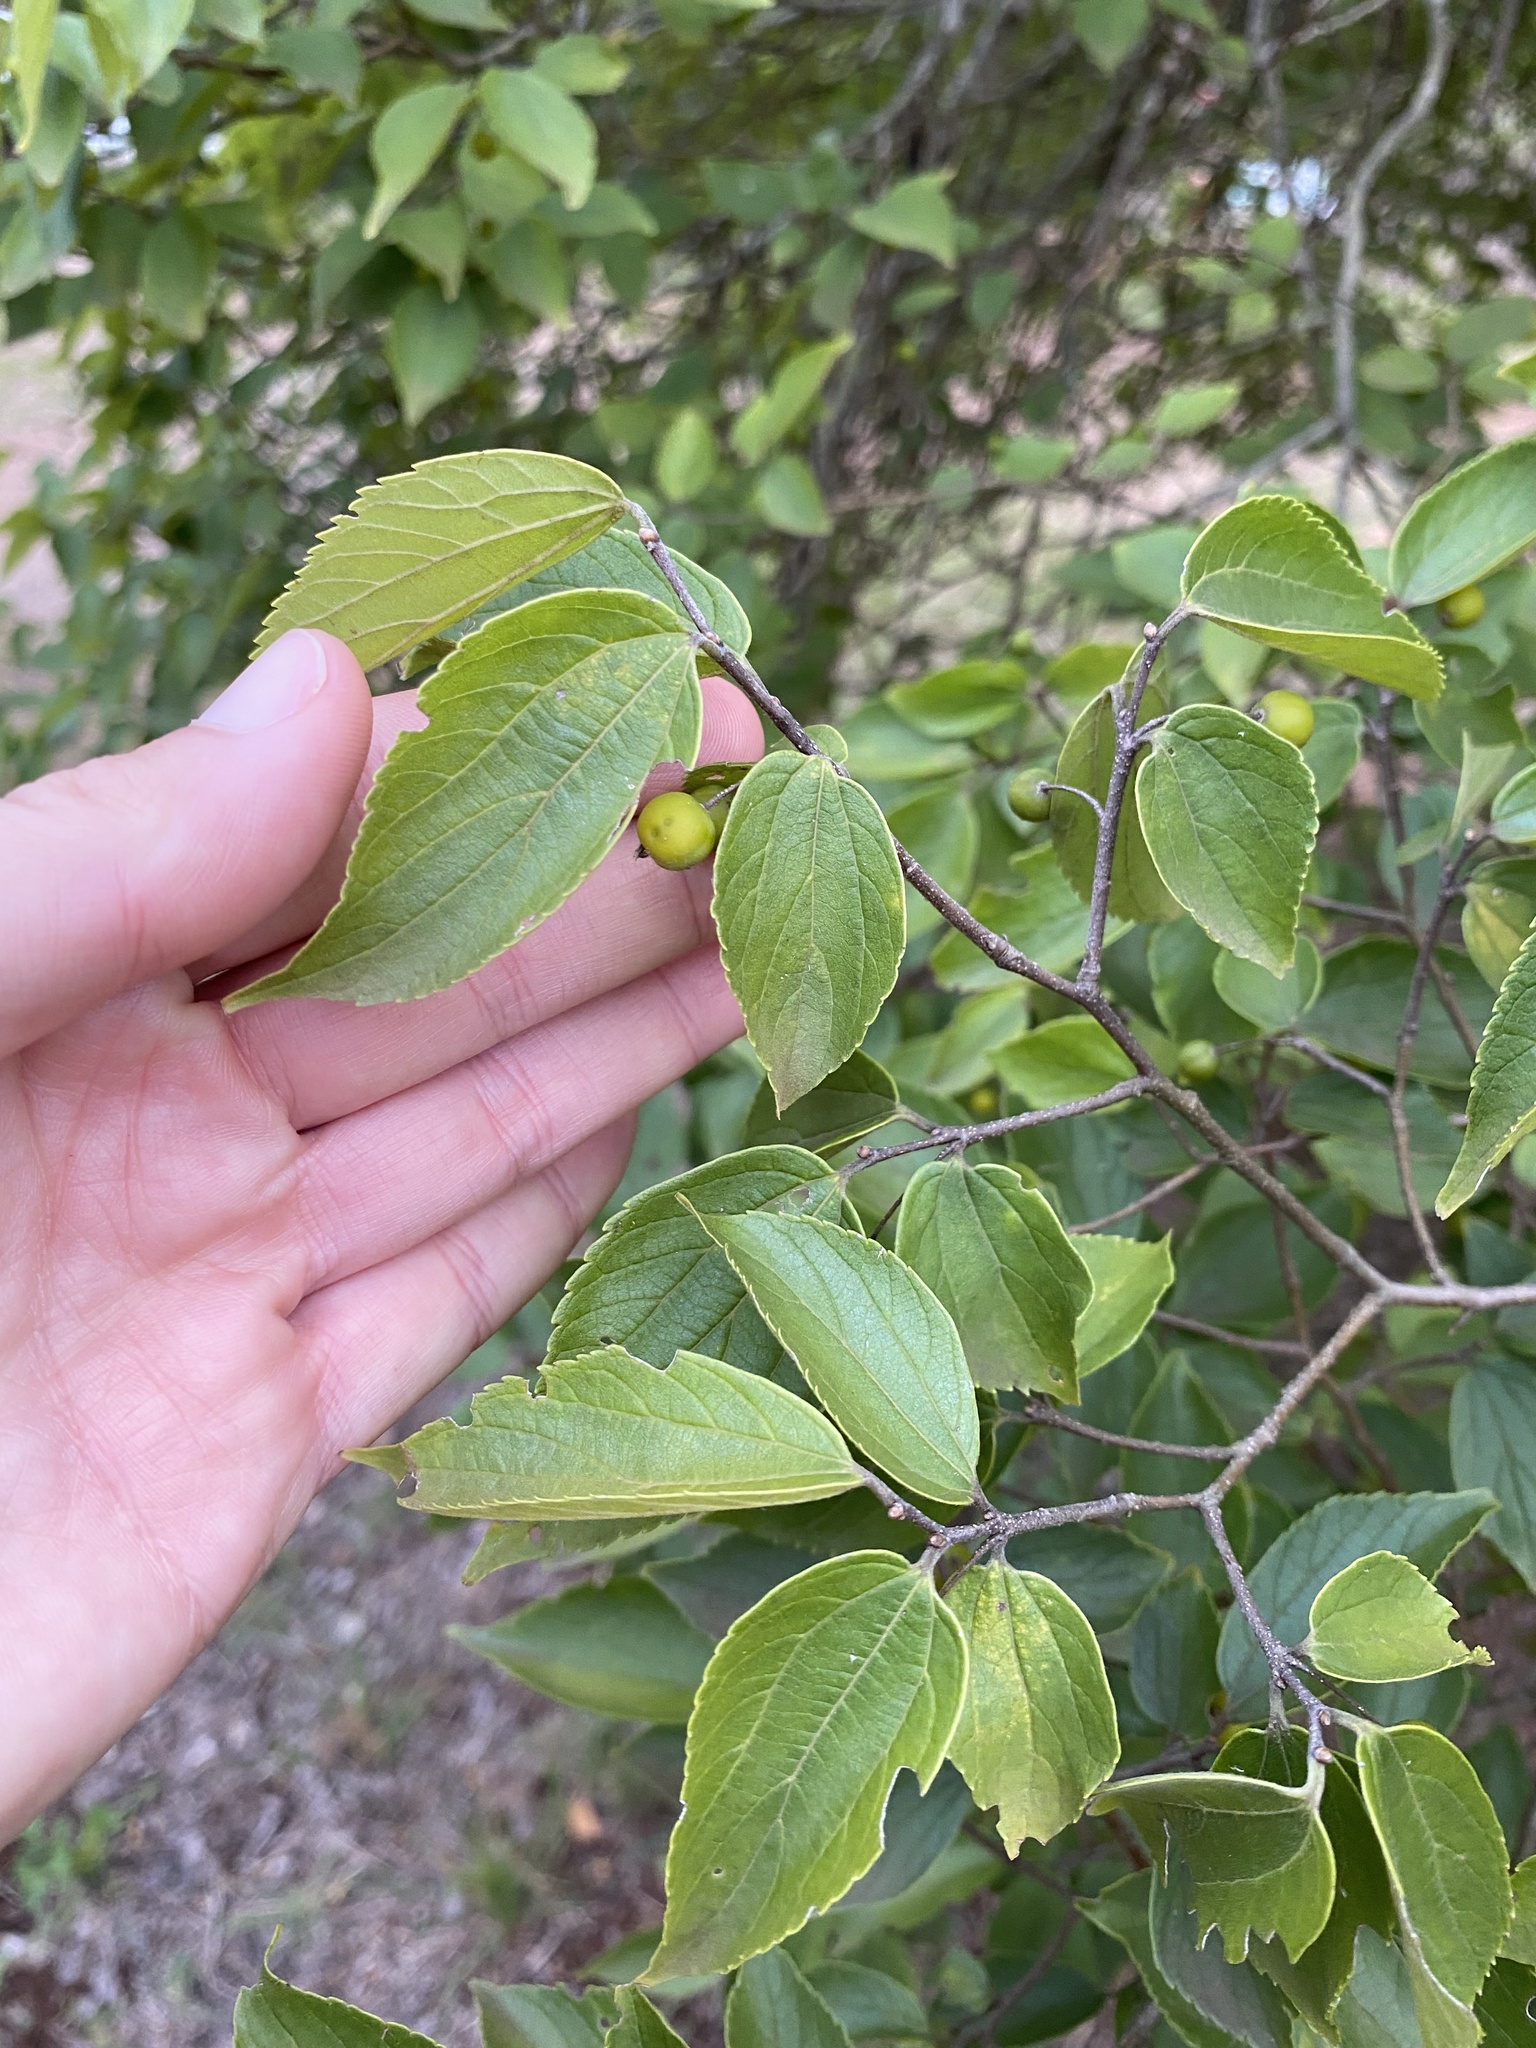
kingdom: Plantae
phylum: Tracheophyta
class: Magnoliopsida
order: Rosales
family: Cannabaceae
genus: Celtis
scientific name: Celtis africana
